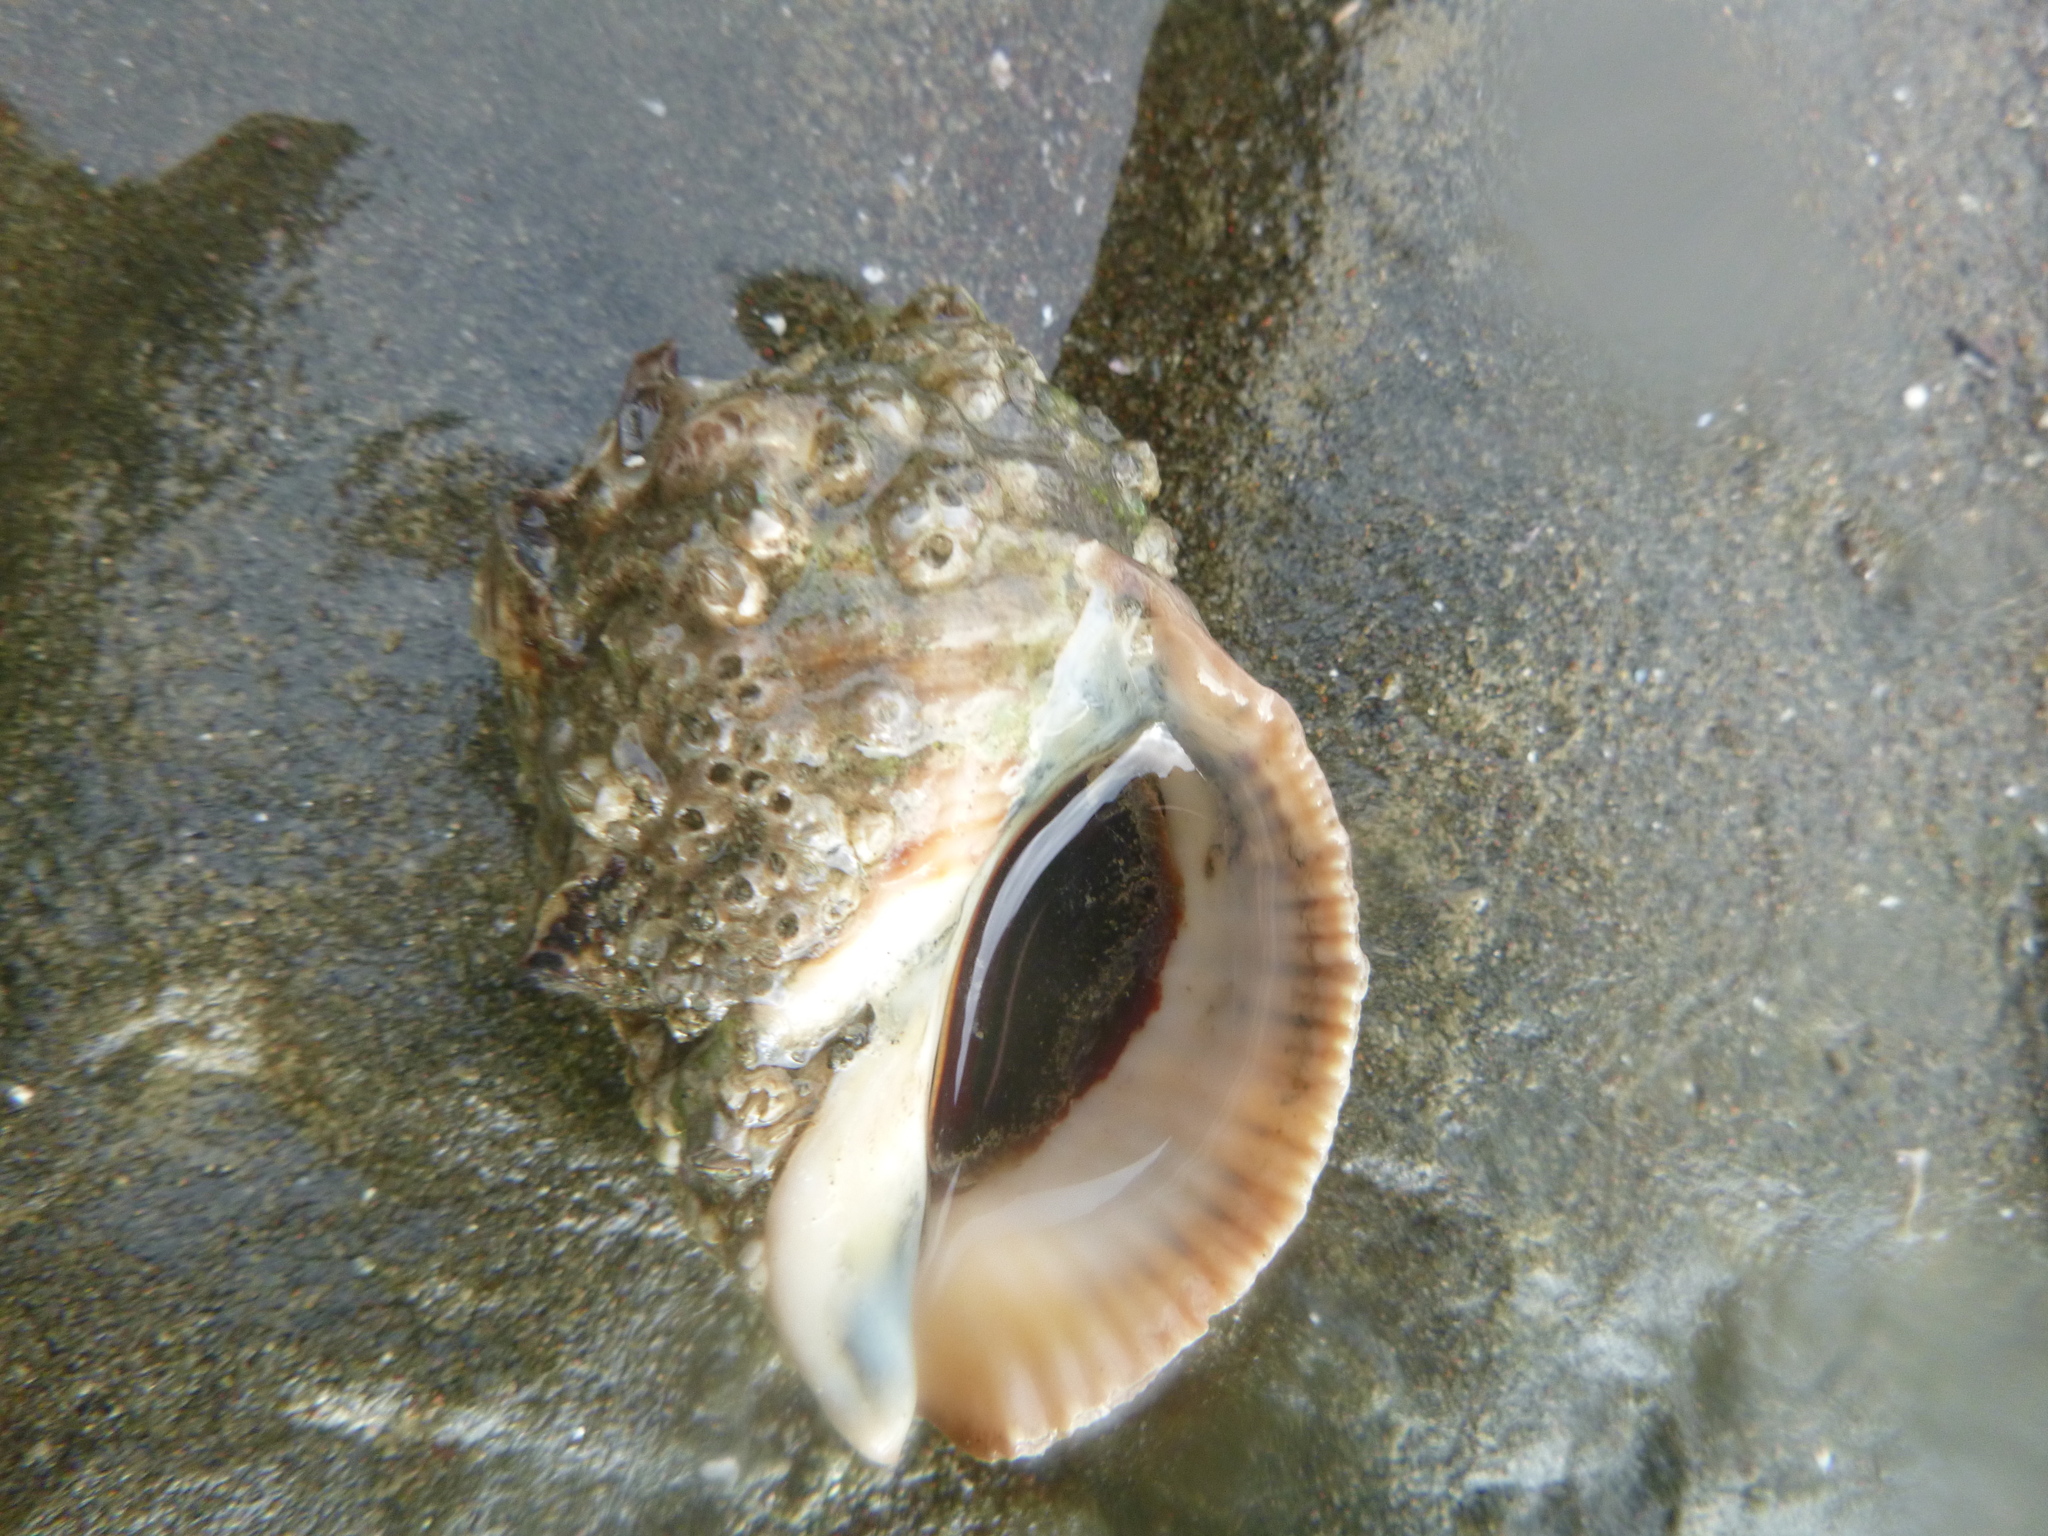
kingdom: Animalia
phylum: Mollusca
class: Gastropoda
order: Neogastropoda
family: Muricidae
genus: Dicathais
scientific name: Dicathais orbita
